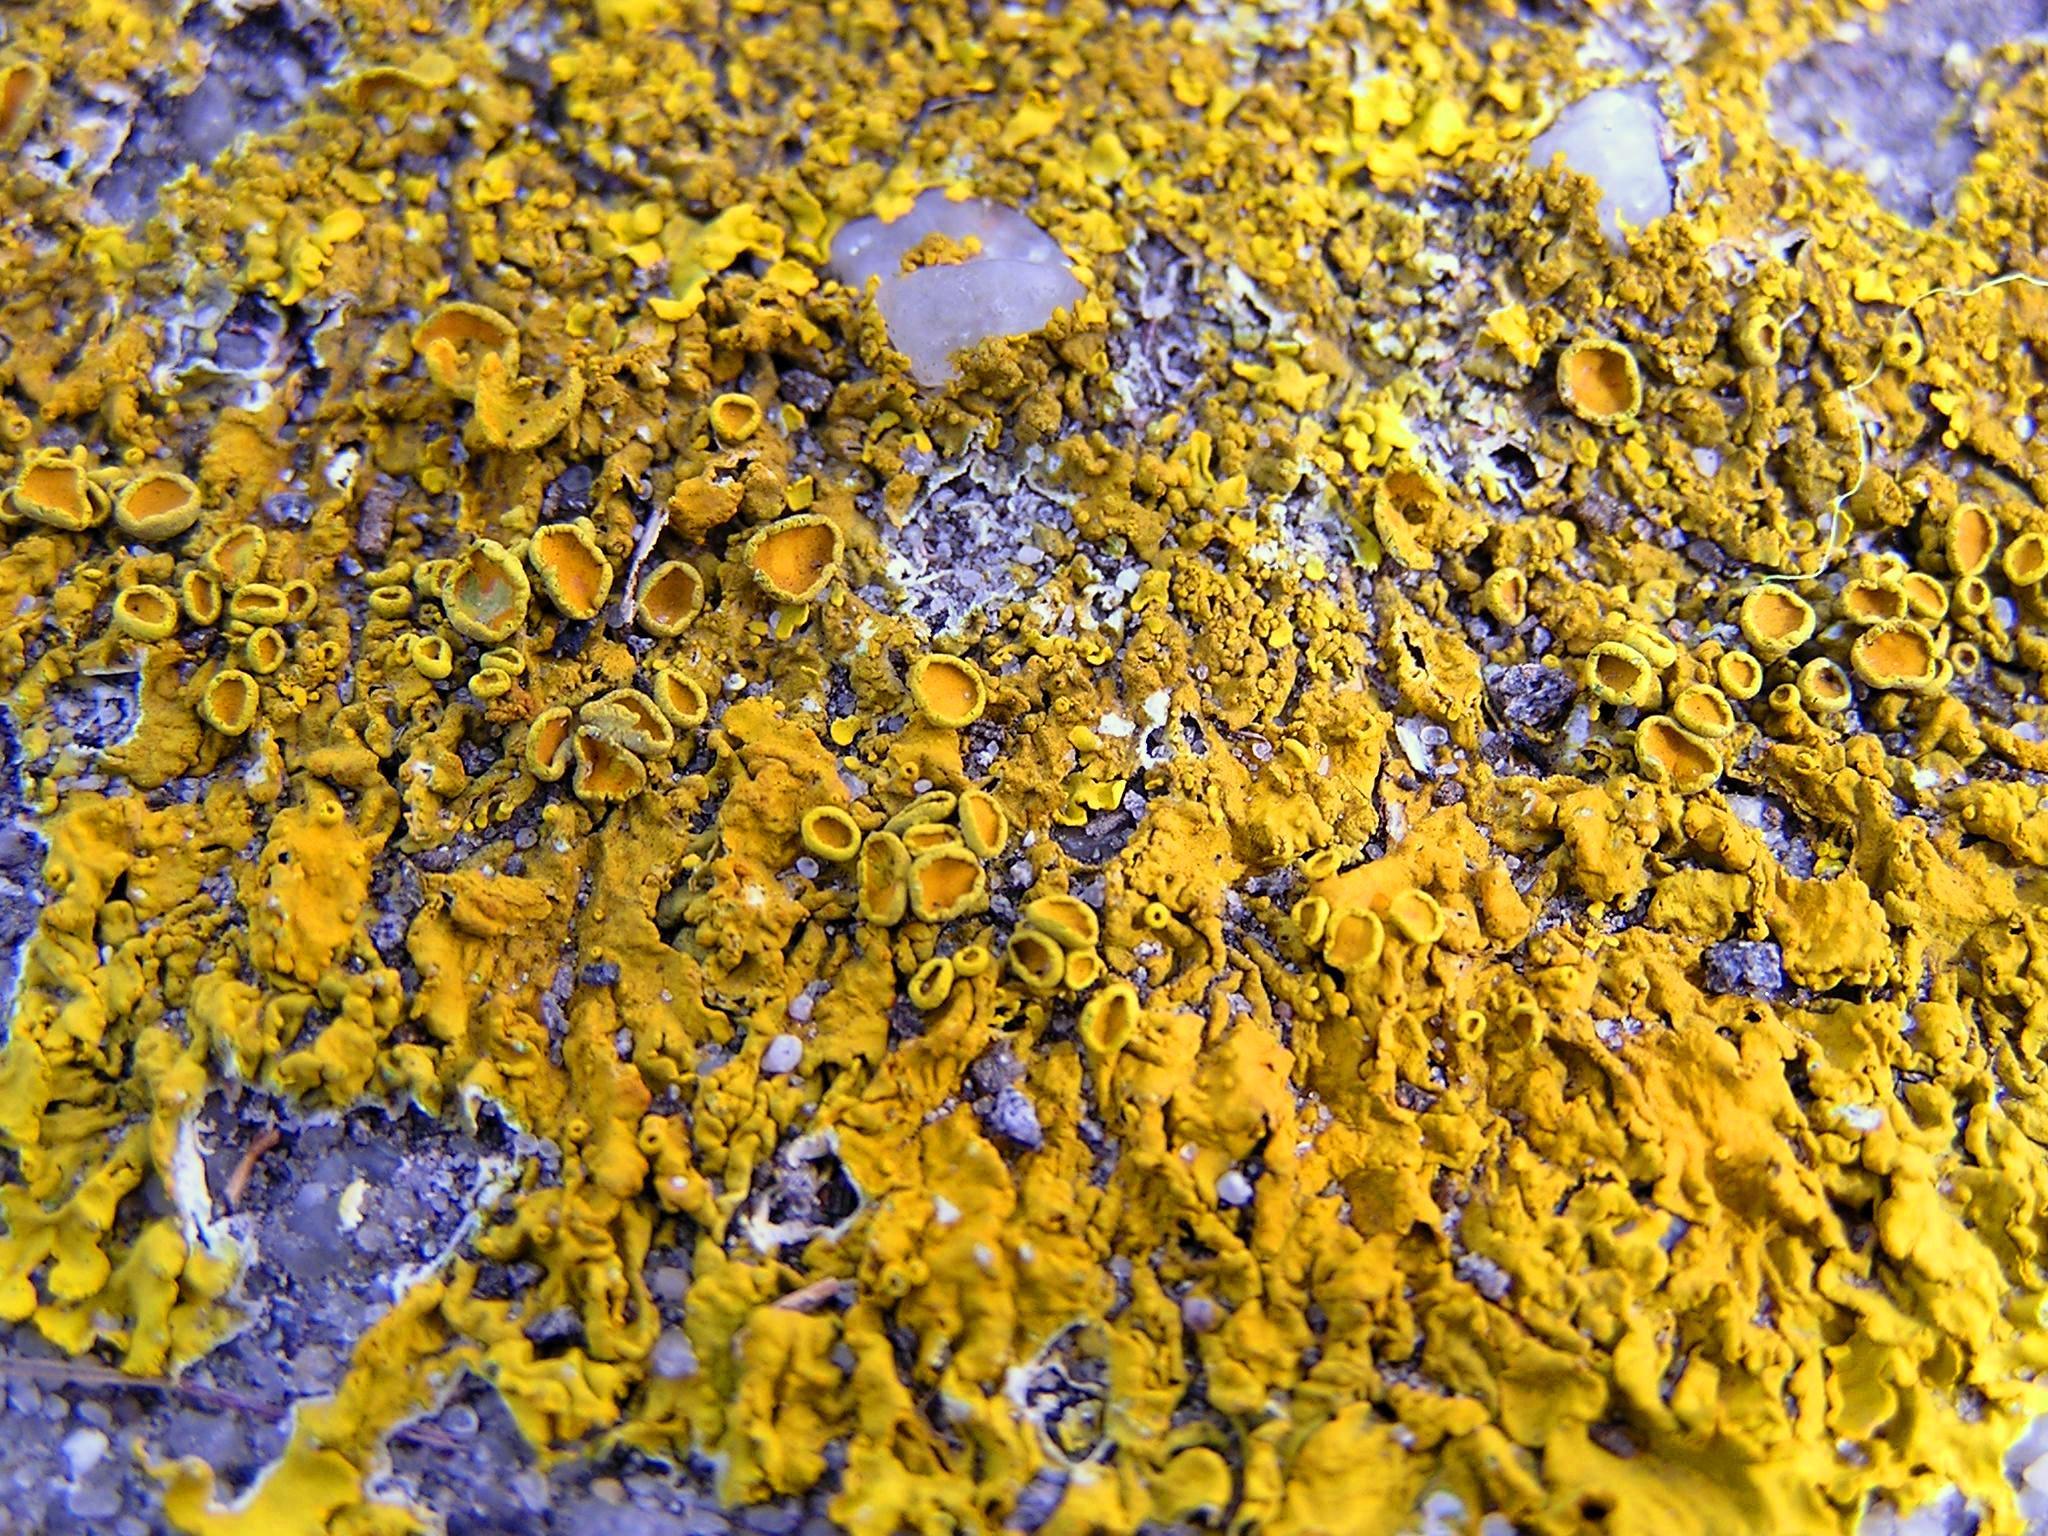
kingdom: Fungi
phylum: Ascomycota
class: Lecanoromycetes
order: Teloschistales
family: Teloschistaceae
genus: Xanthoria
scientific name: Xanthoria parietina
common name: Common orange lichen
